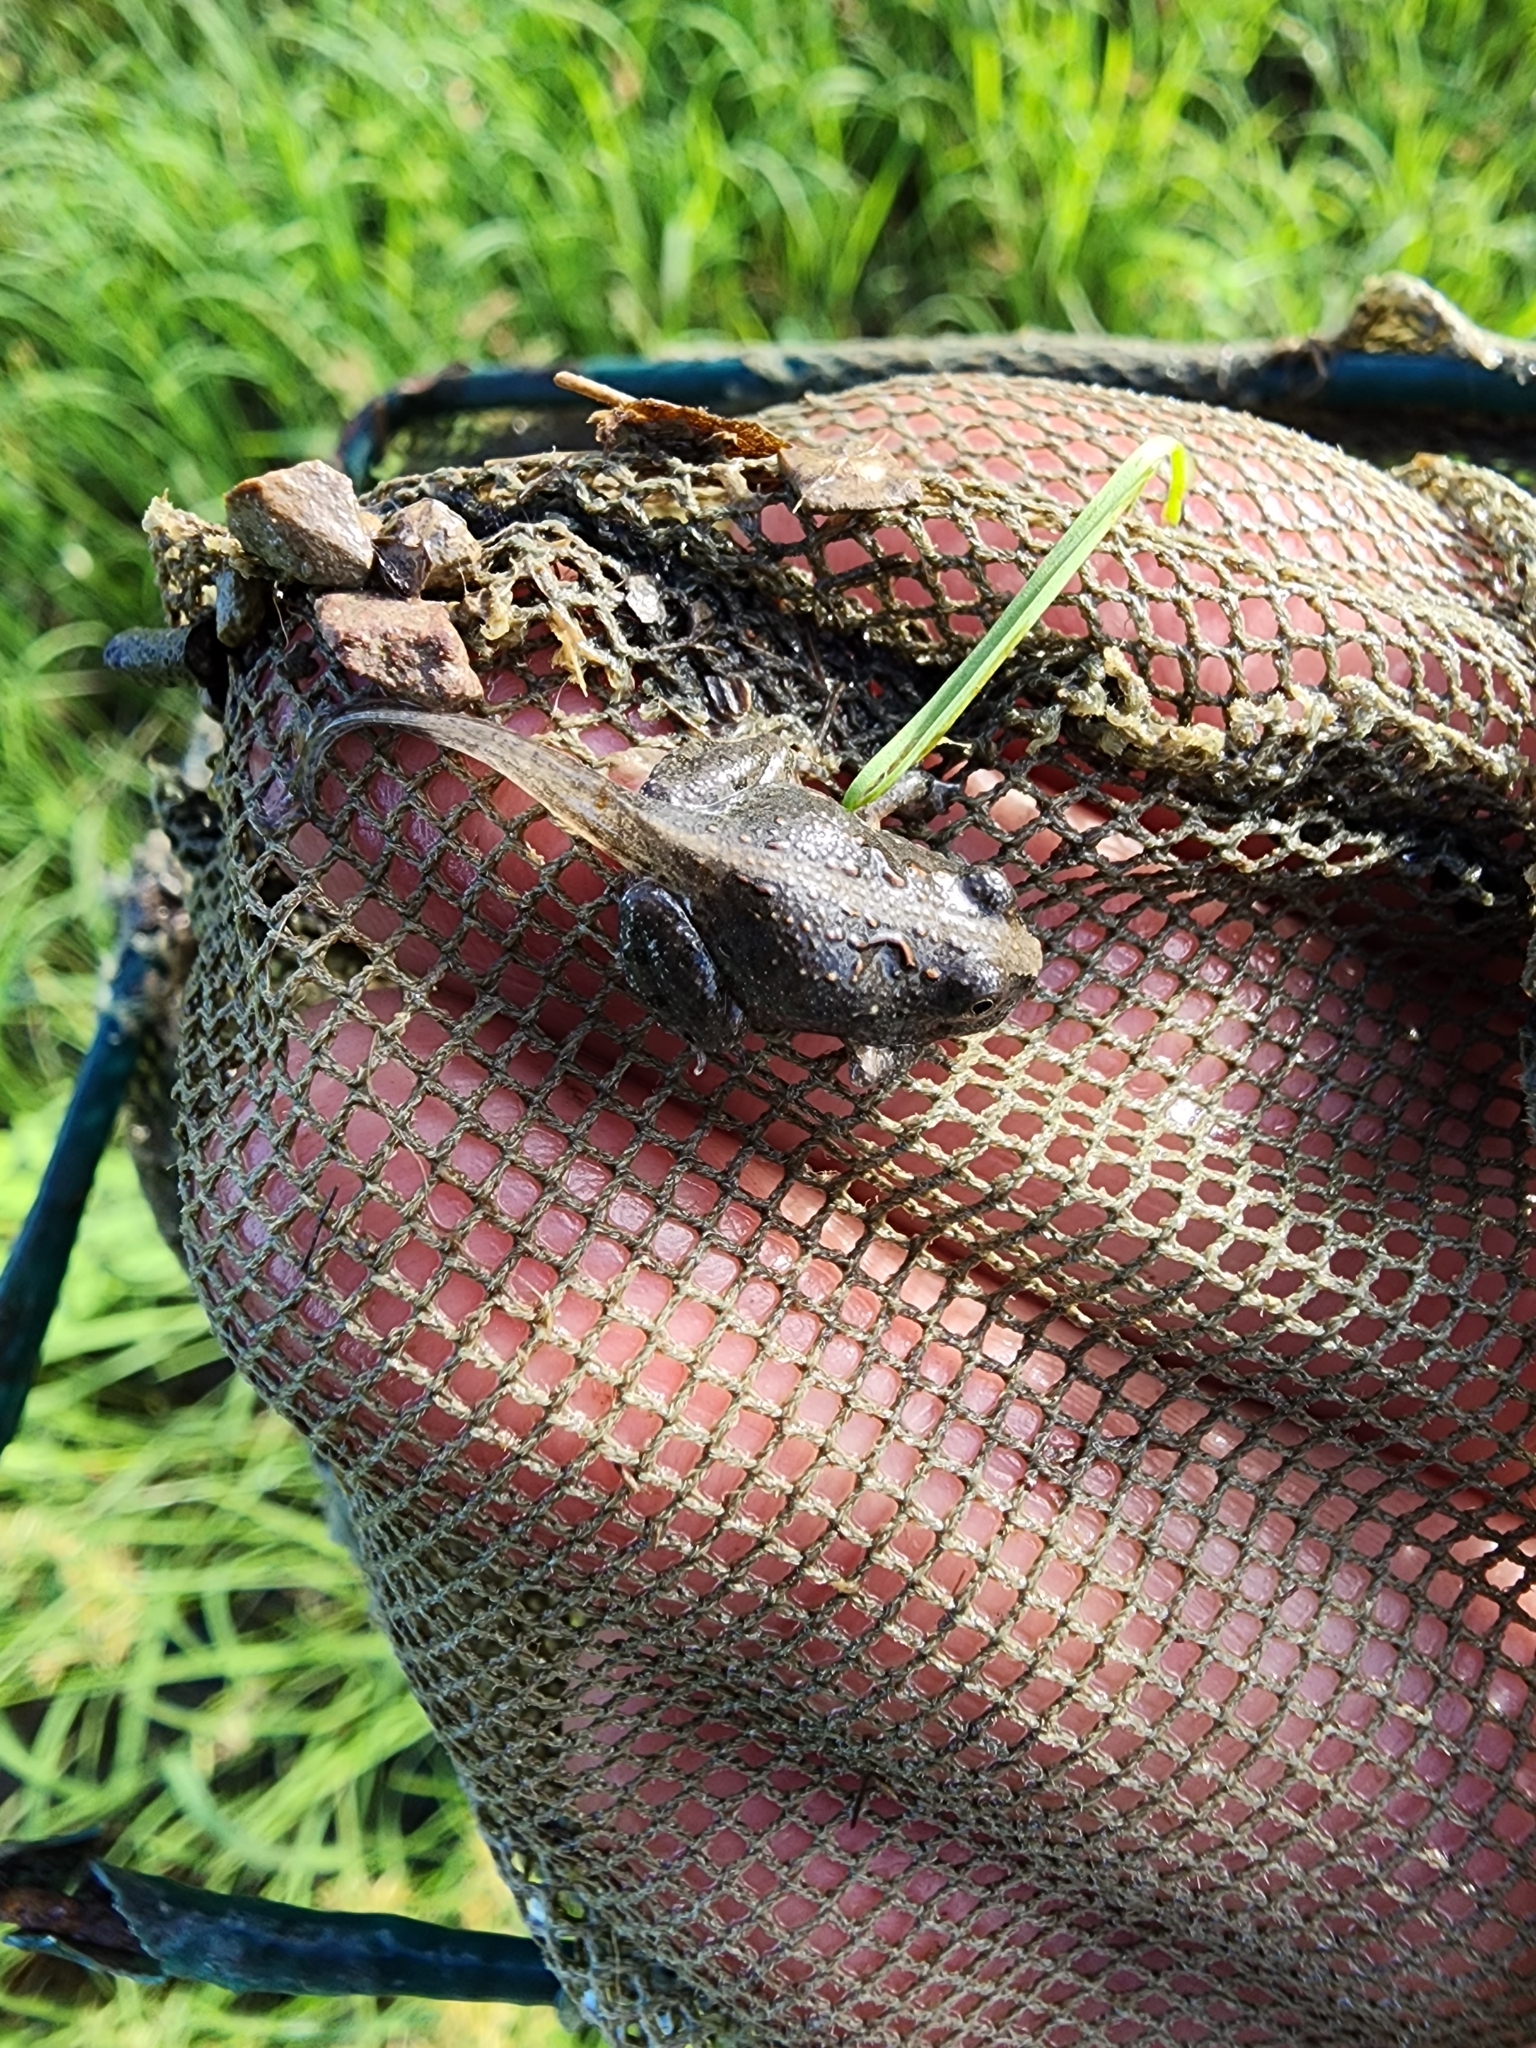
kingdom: Animalia
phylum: Chordata
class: Amphibia
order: Anura
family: Limnodynastidae
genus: Platyplectrum
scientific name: Platyplectrum ornatum
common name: Ornate burrowing frog
